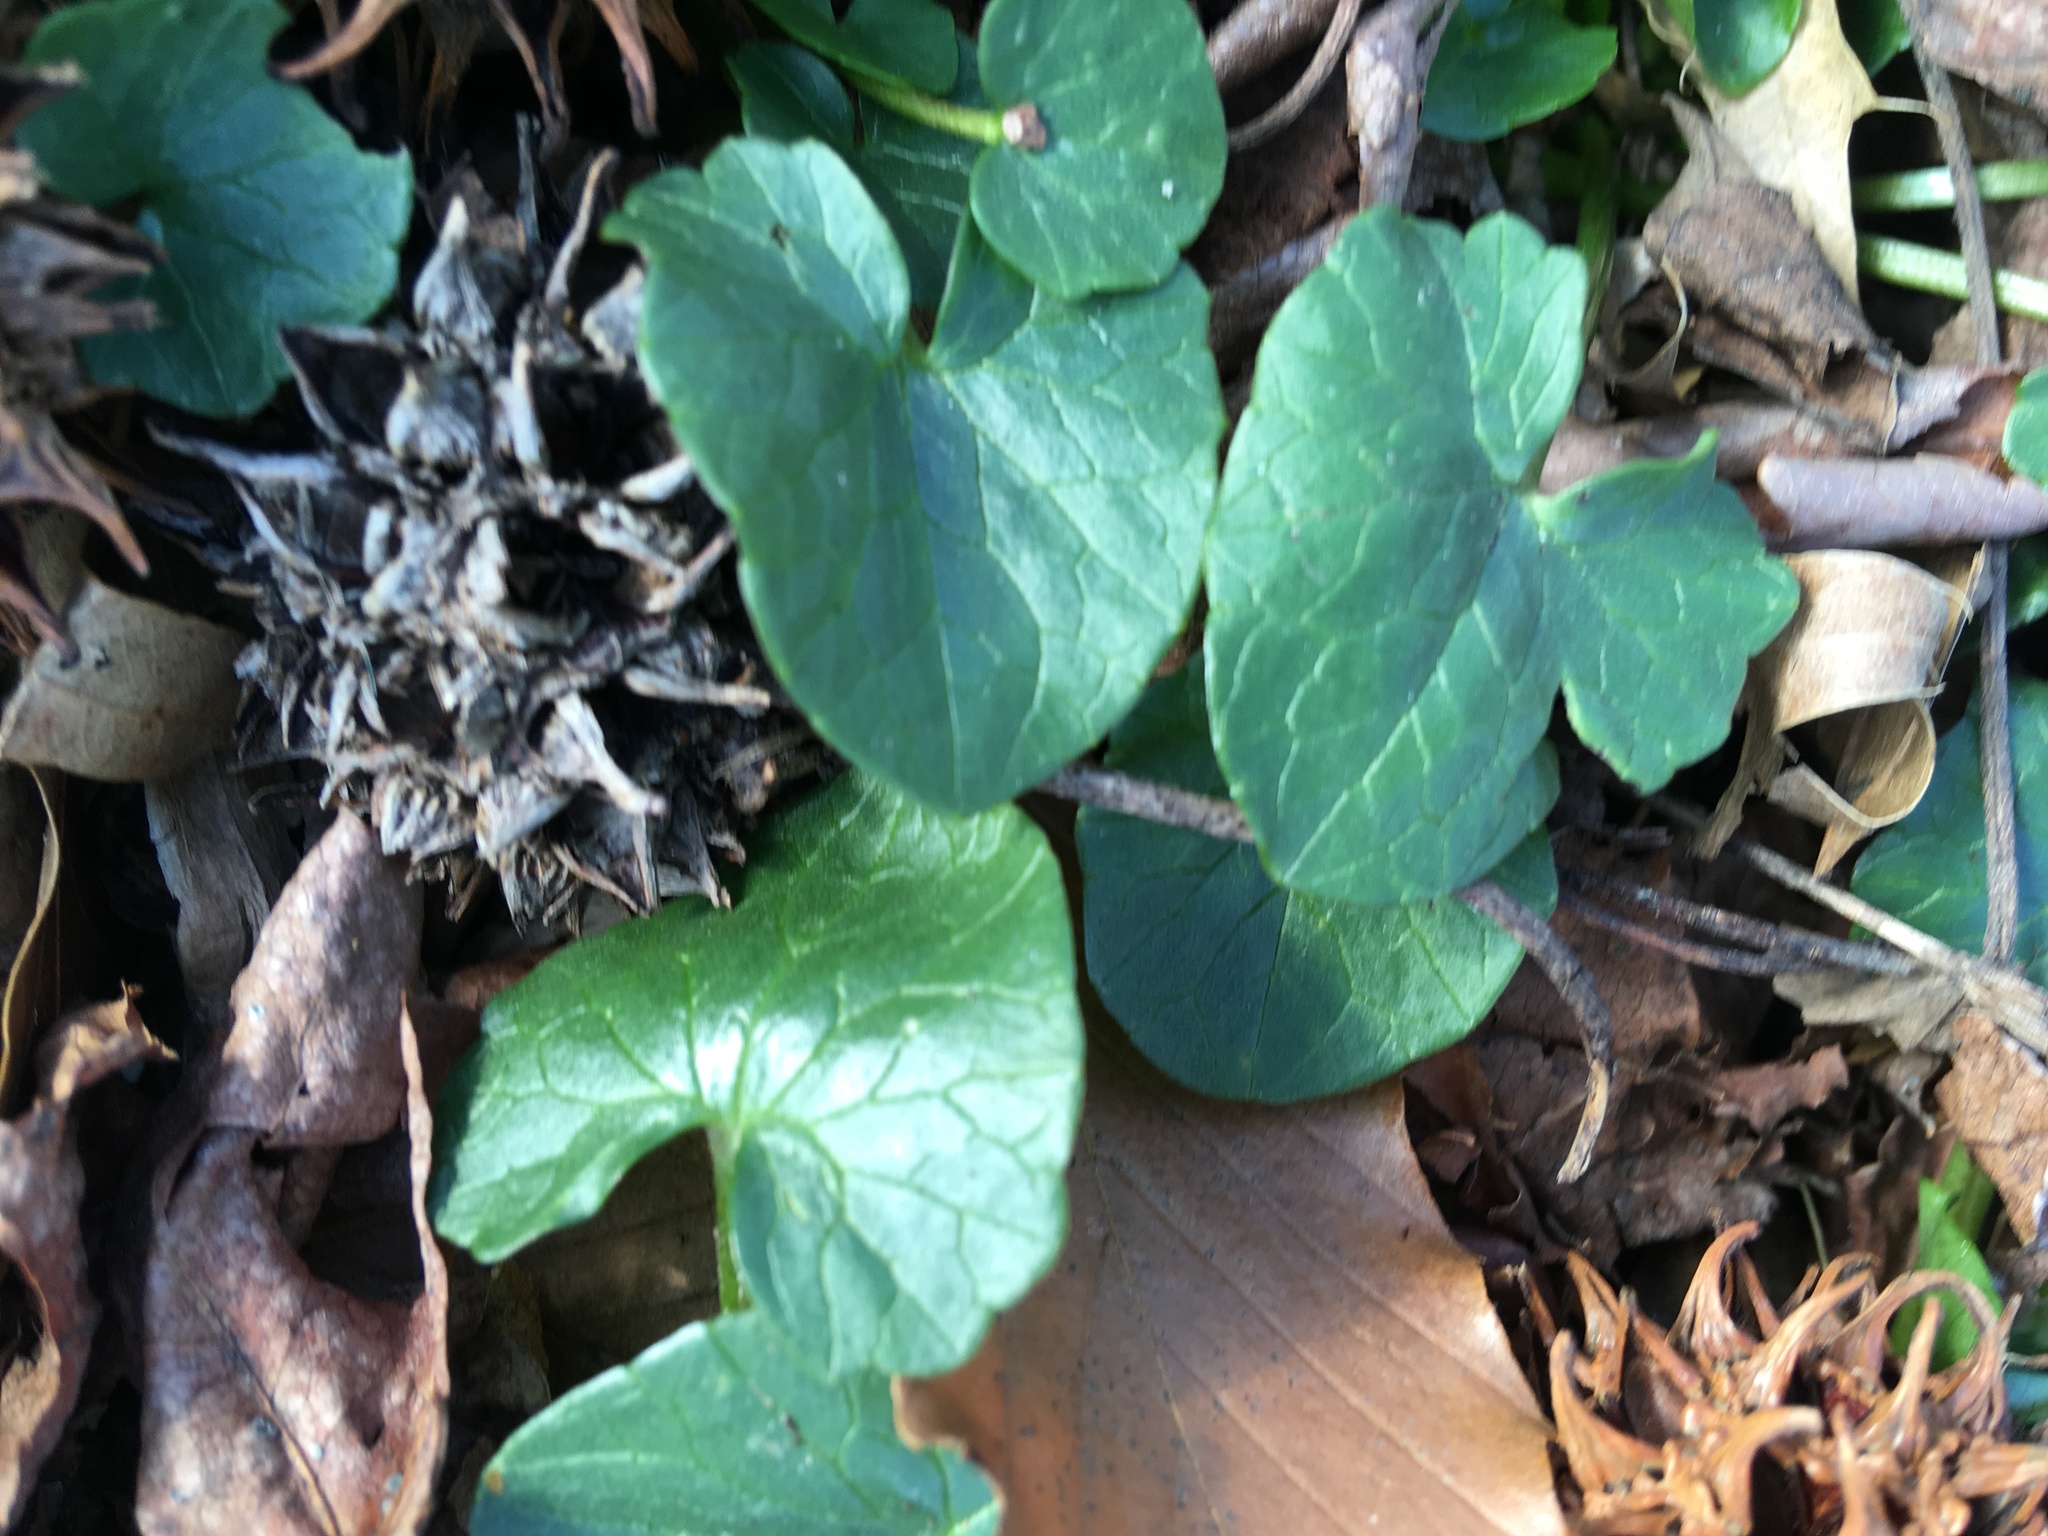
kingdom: Plantae
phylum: Tracheophyta
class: Magnoliopsida
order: Ranunculales
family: Ranunculaceae
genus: Ficaria
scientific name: Ficaria verna
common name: Lesser celandine
